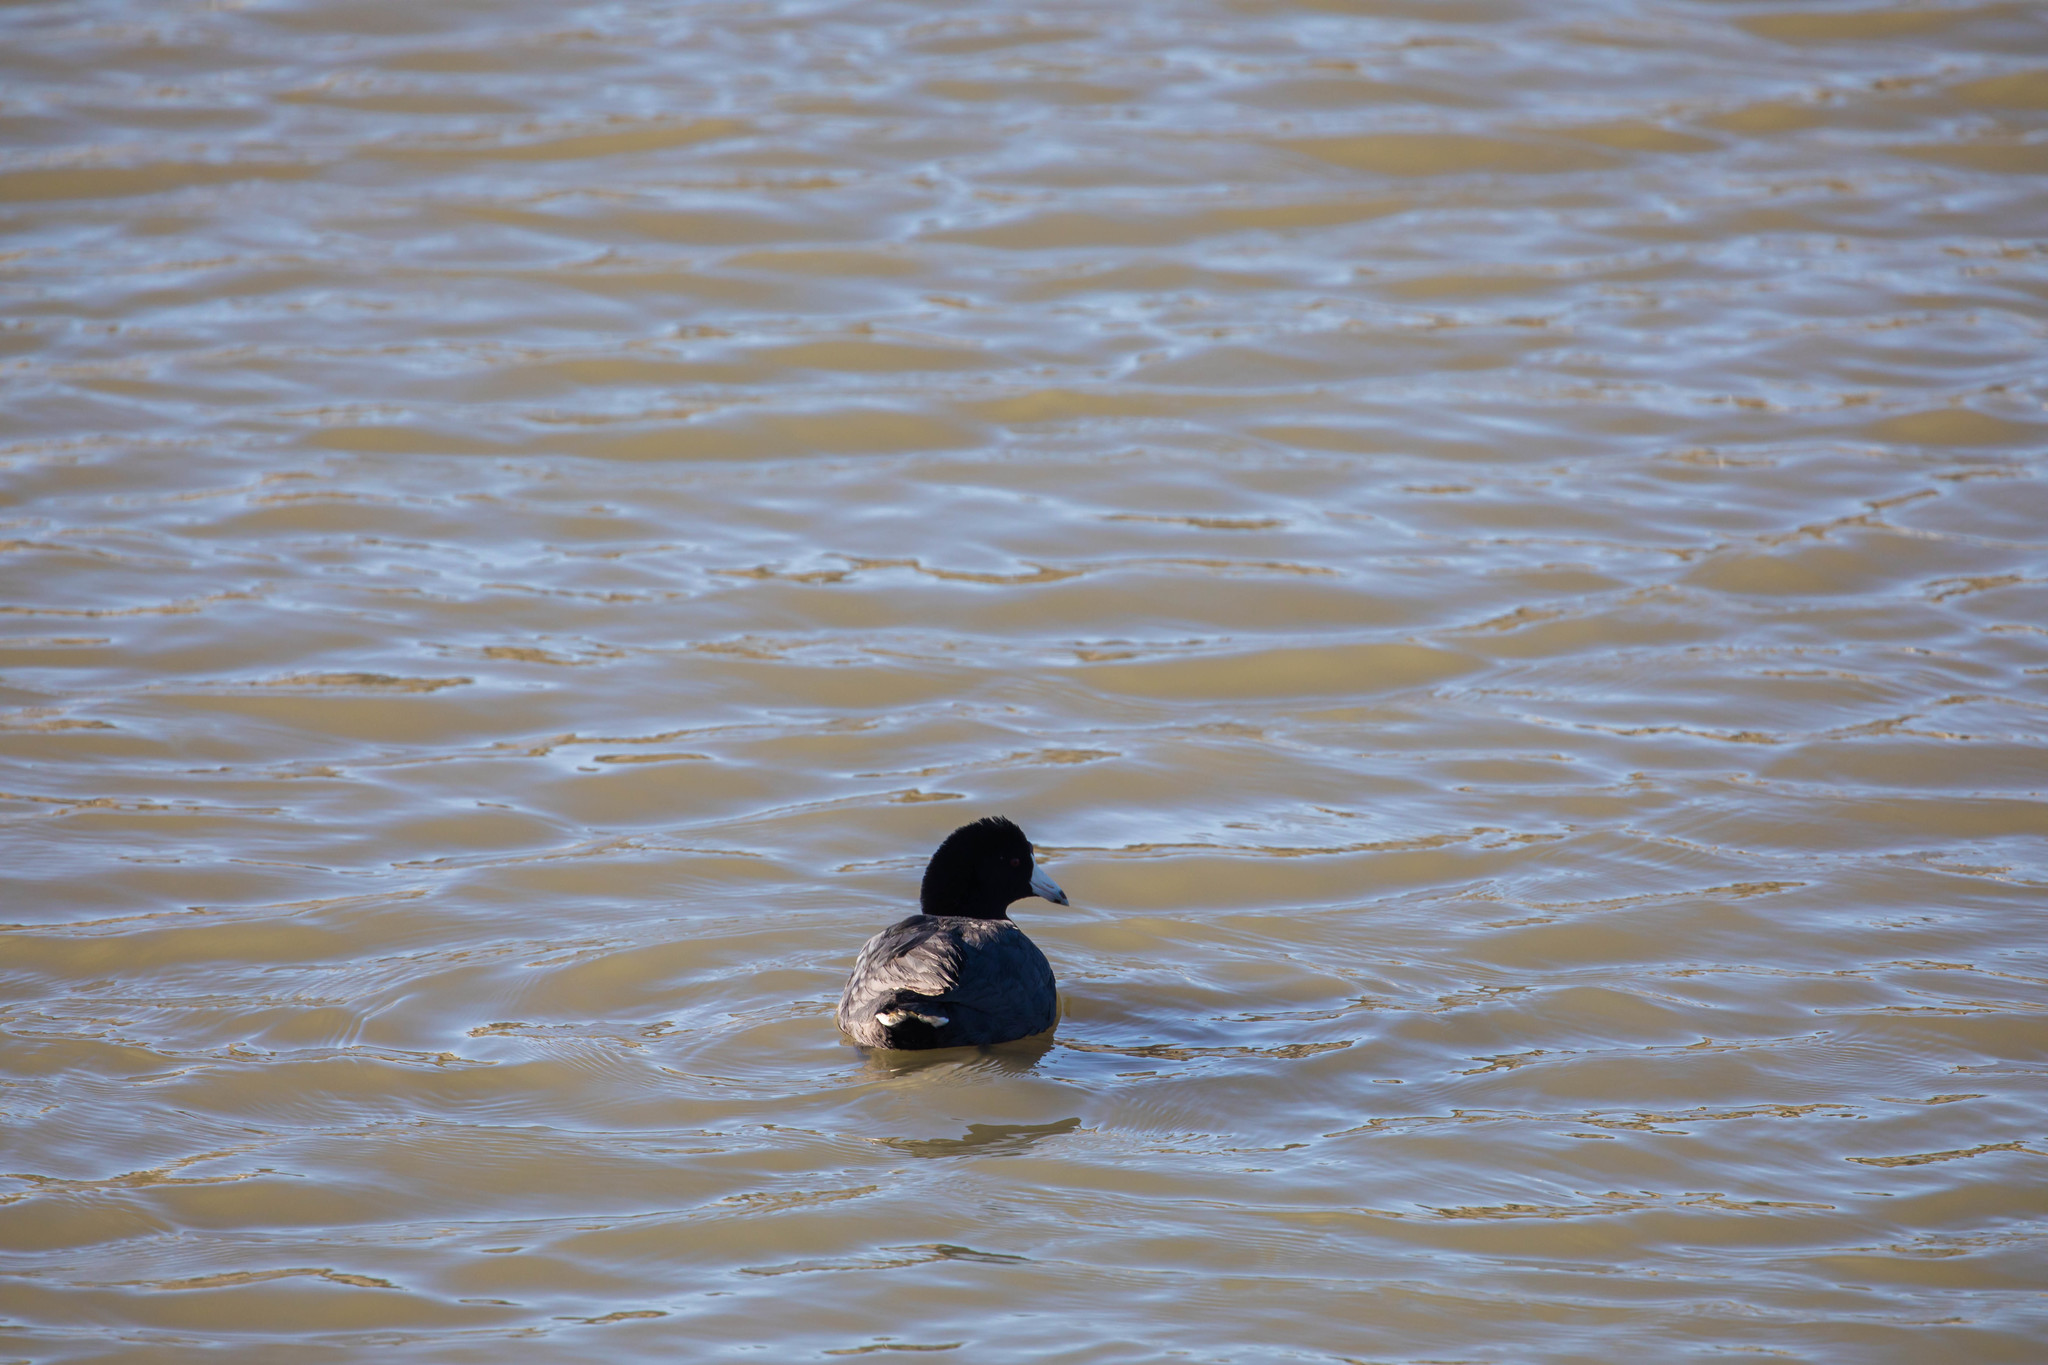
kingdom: Animalia
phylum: Chordata
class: Aves
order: Gruiformes
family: Rallidae
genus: Fulica
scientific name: Fulica americana
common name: American coot
